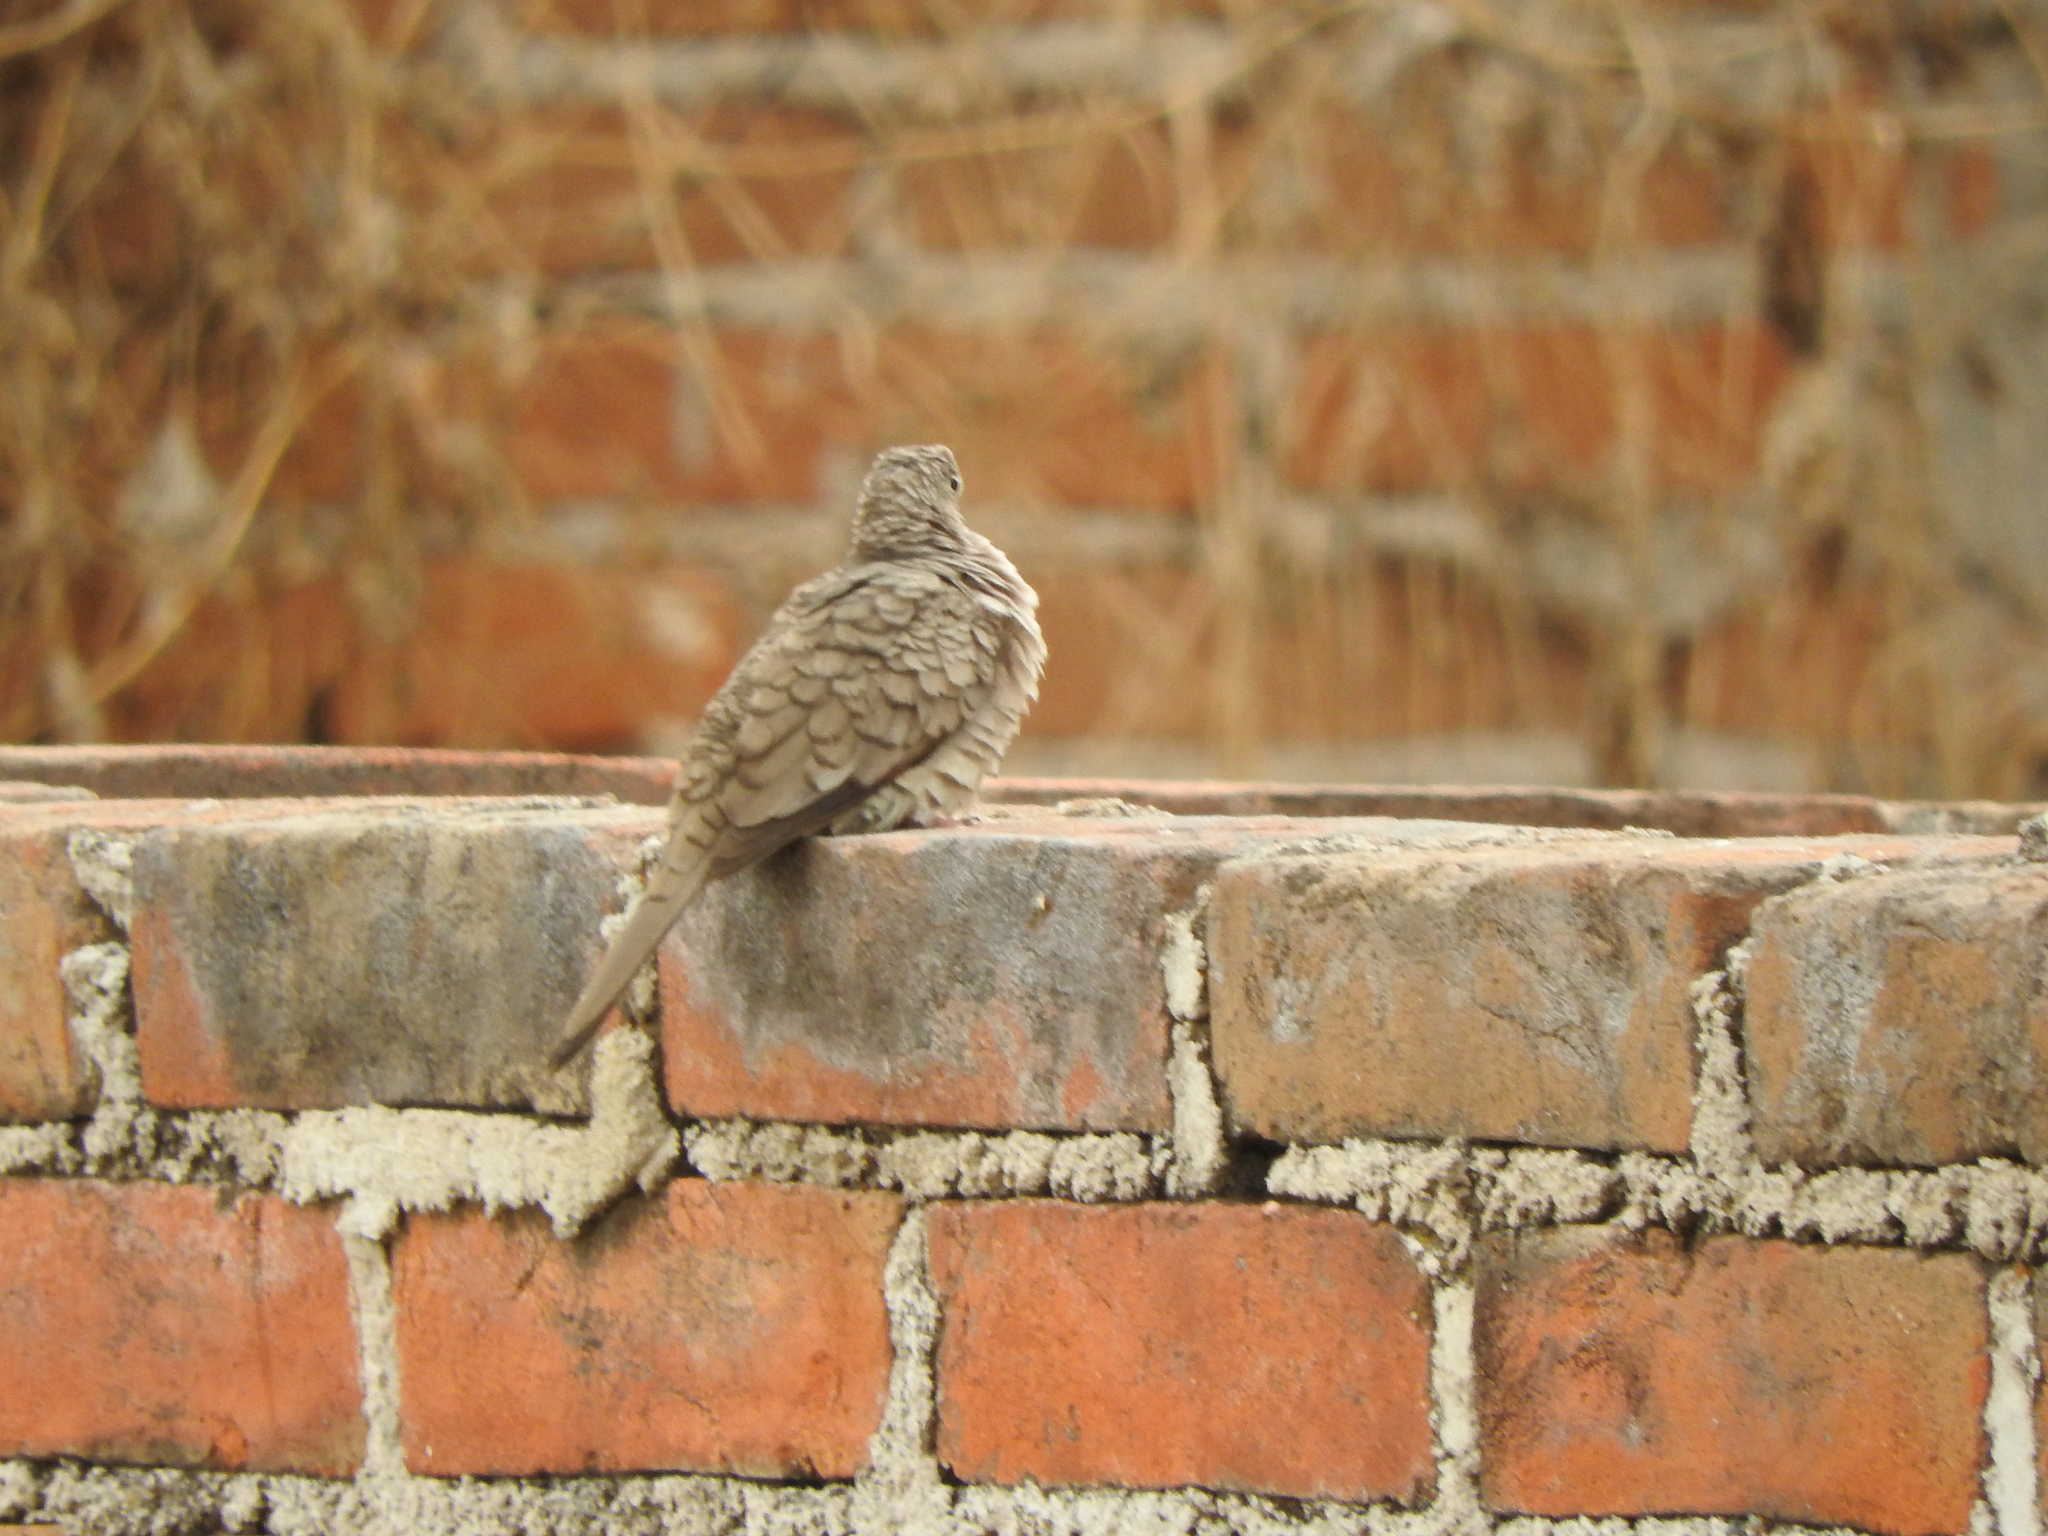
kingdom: Animalia
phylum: Chordata
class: Aves
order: Columbiformes
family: Columbidae
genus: Columbina
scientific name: Columbina inca
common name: Inca dove
